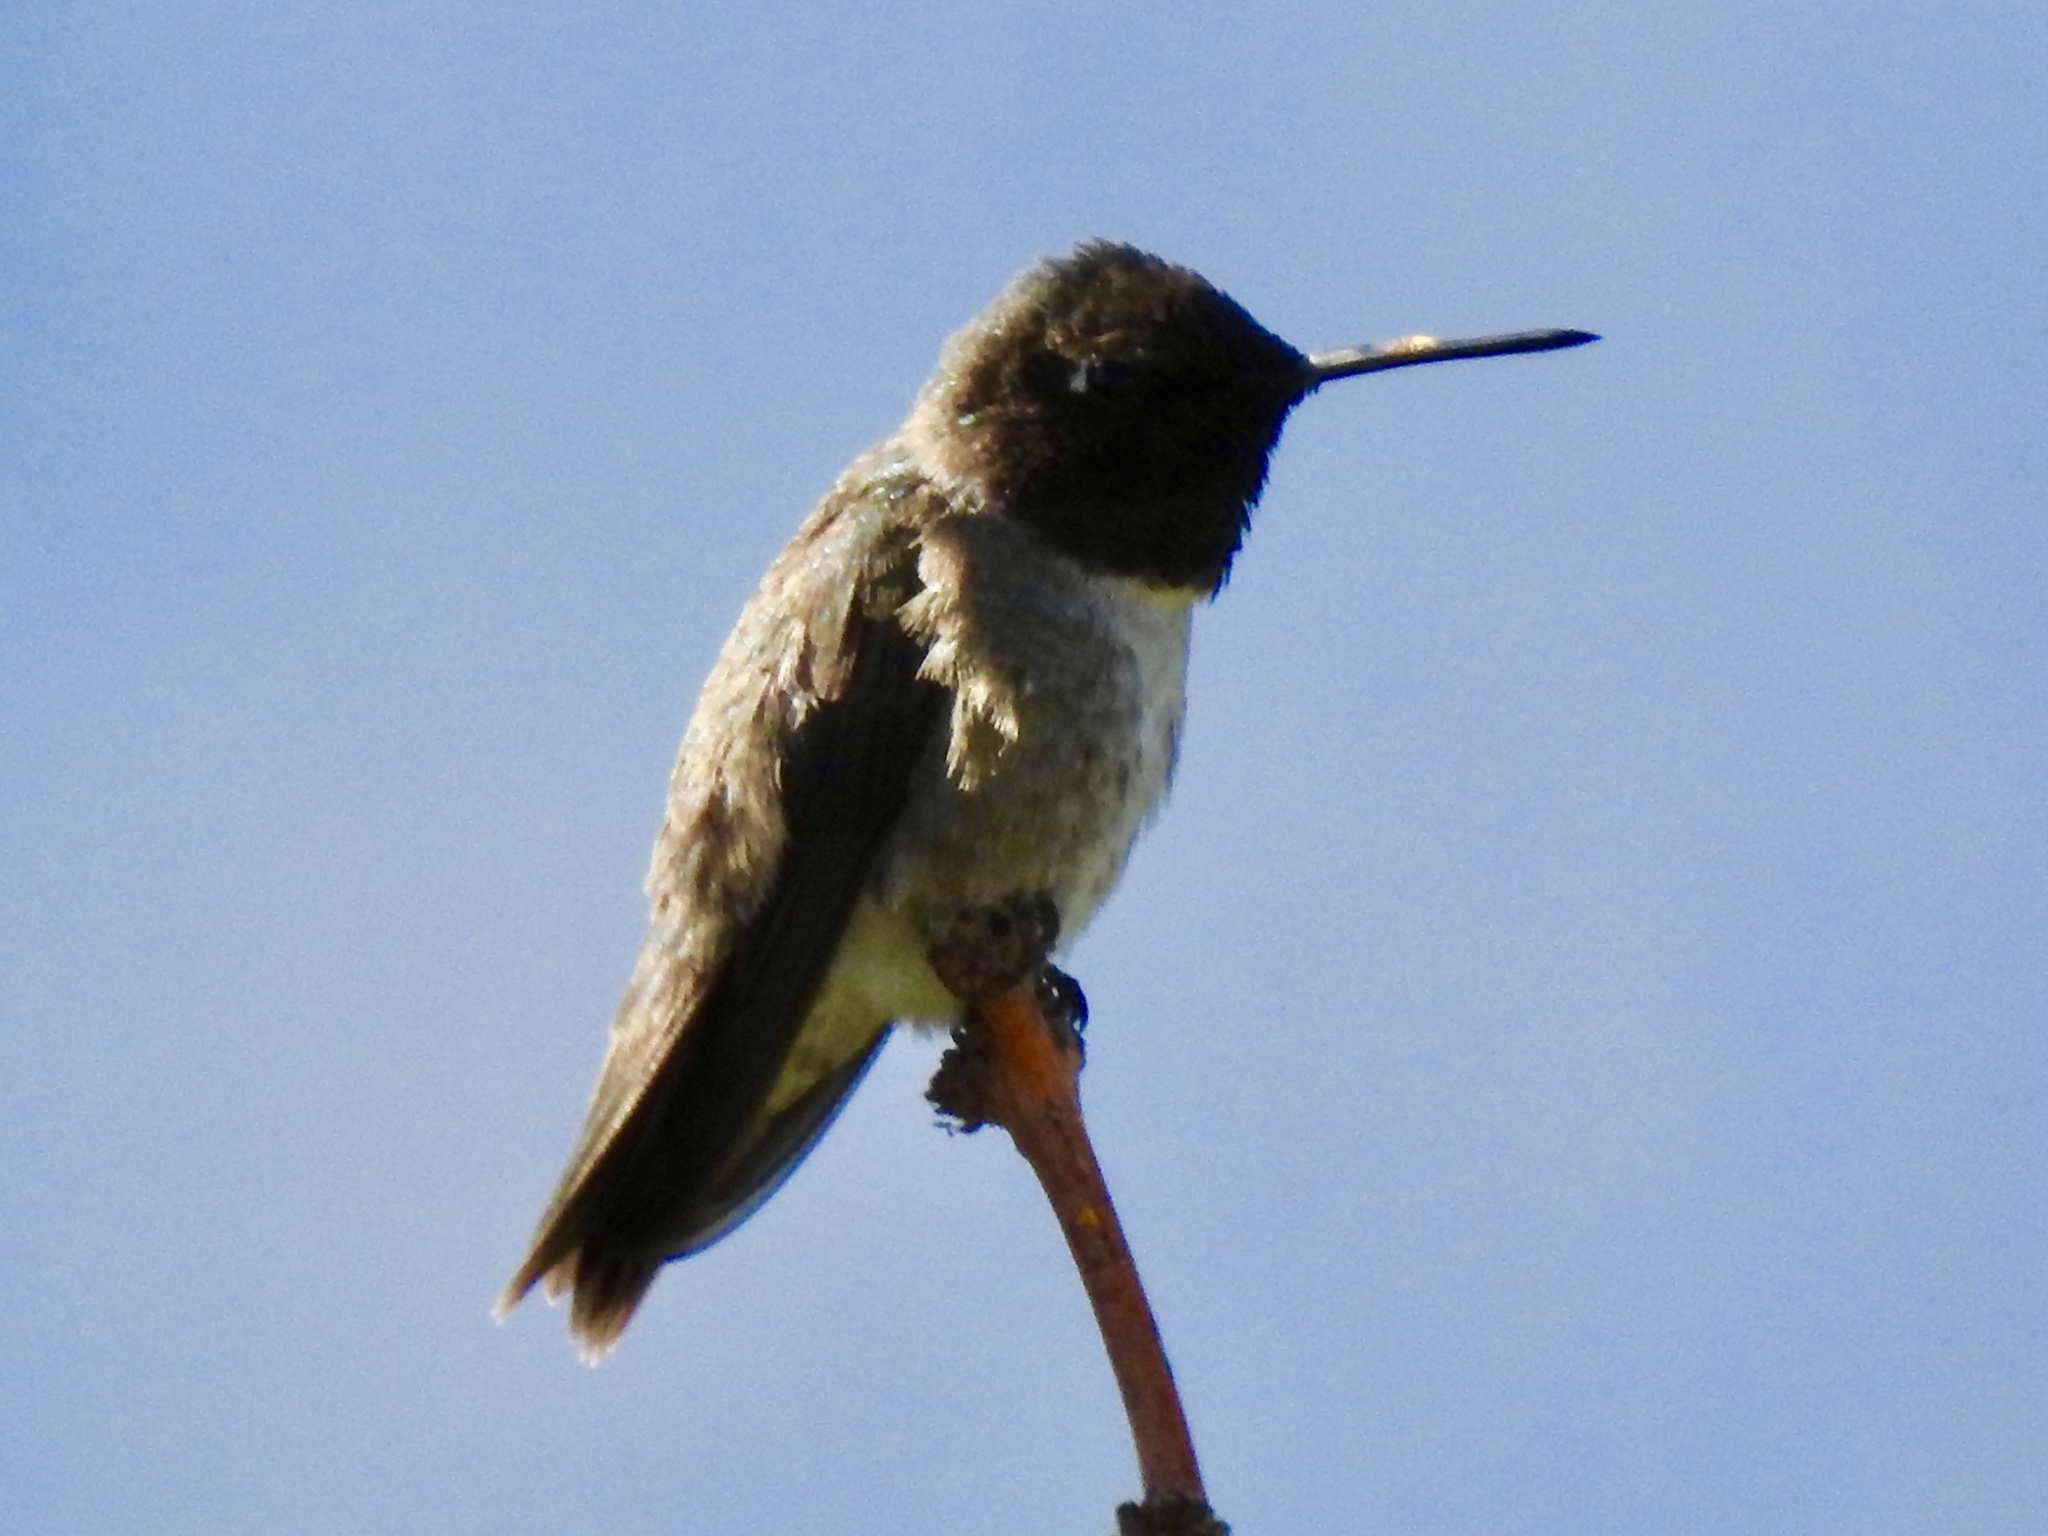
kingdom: Animalia
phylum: Chordata
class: Aves
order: Apodiformes
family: Trochilidae
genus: Archilochus
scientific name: Archilochus alexandri
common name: Black-chinned hummingbird
